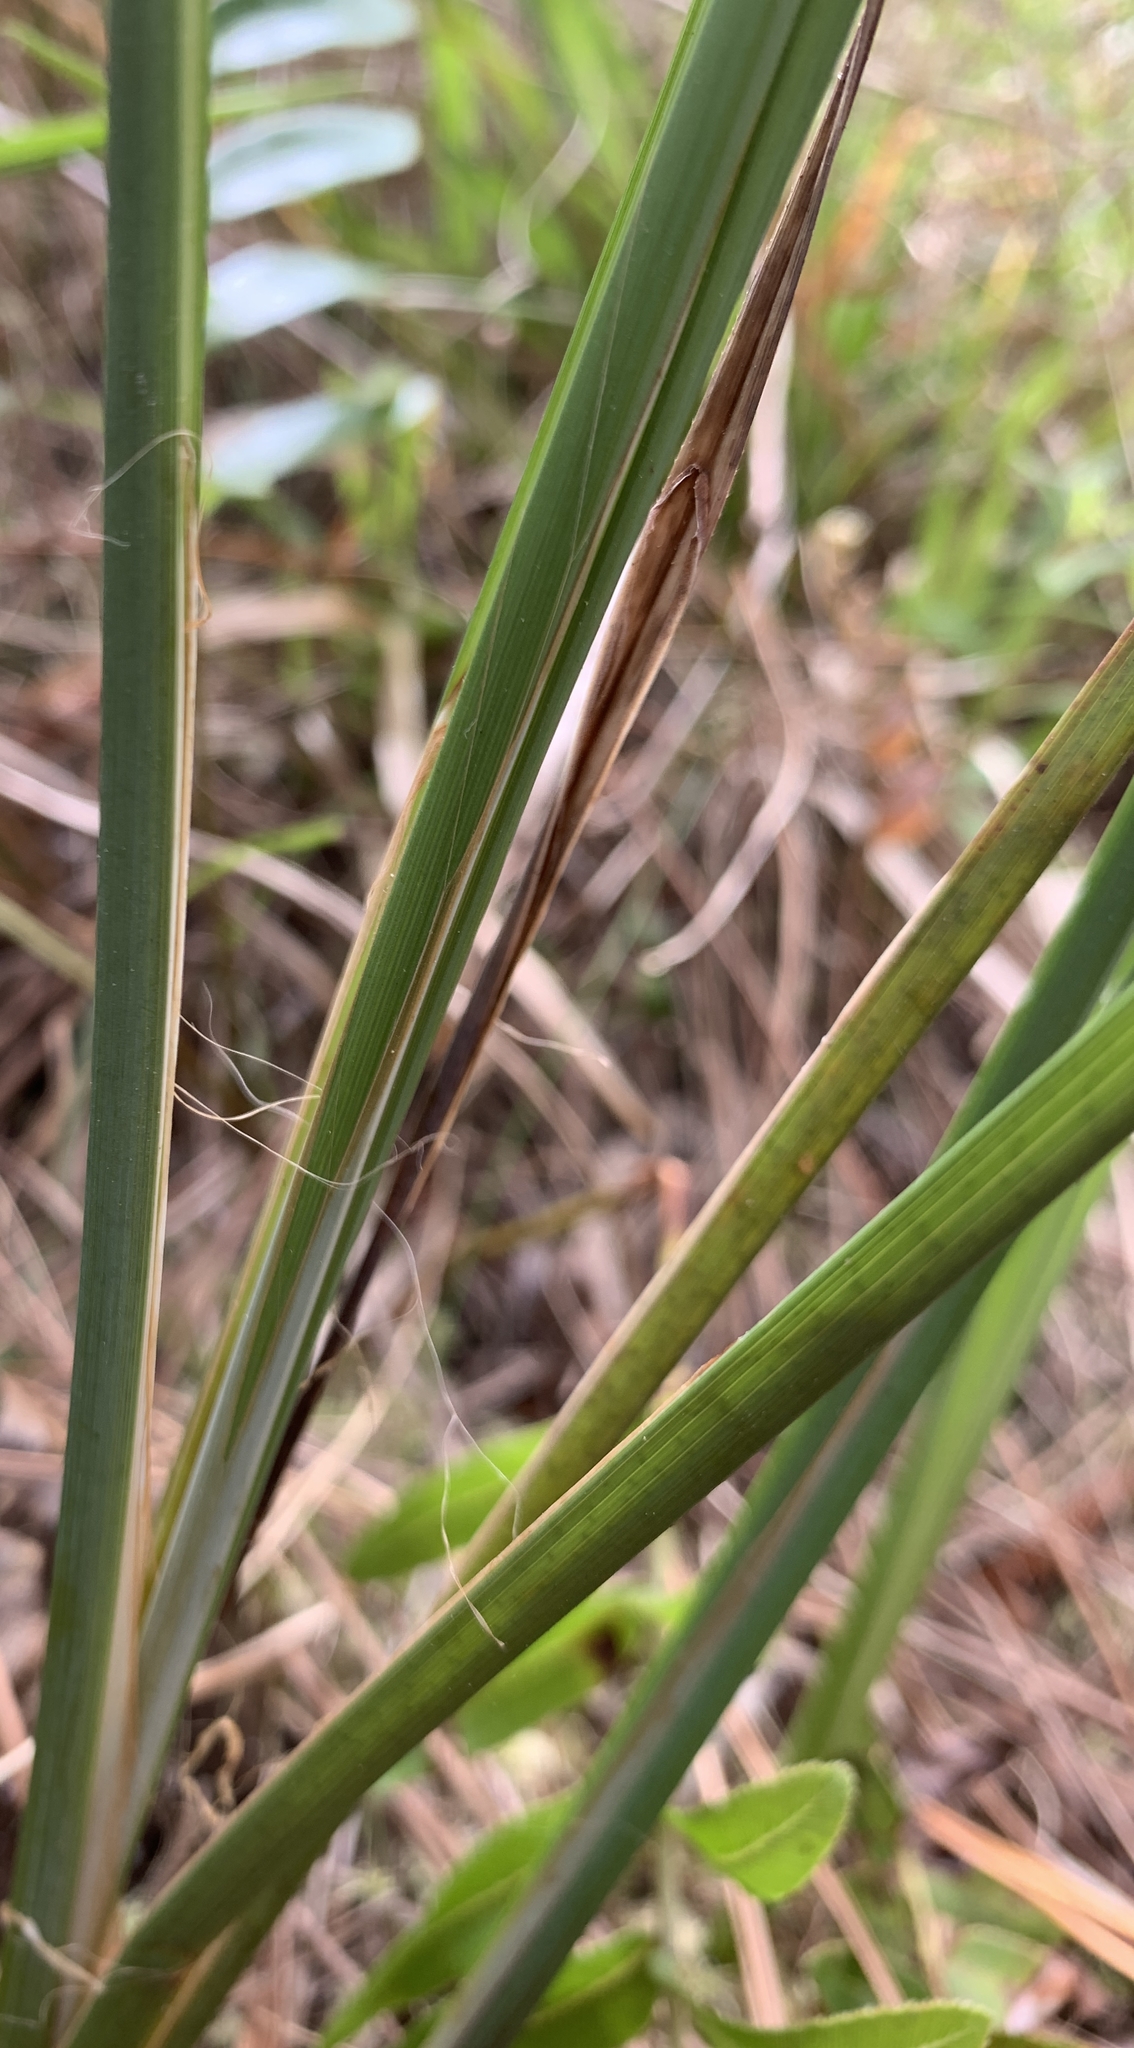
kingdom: Plantae
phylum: Tracheophyta
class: Liliopsida
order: Poales
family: Cyperaceae
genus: Carex
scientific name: Carex verrucosa
